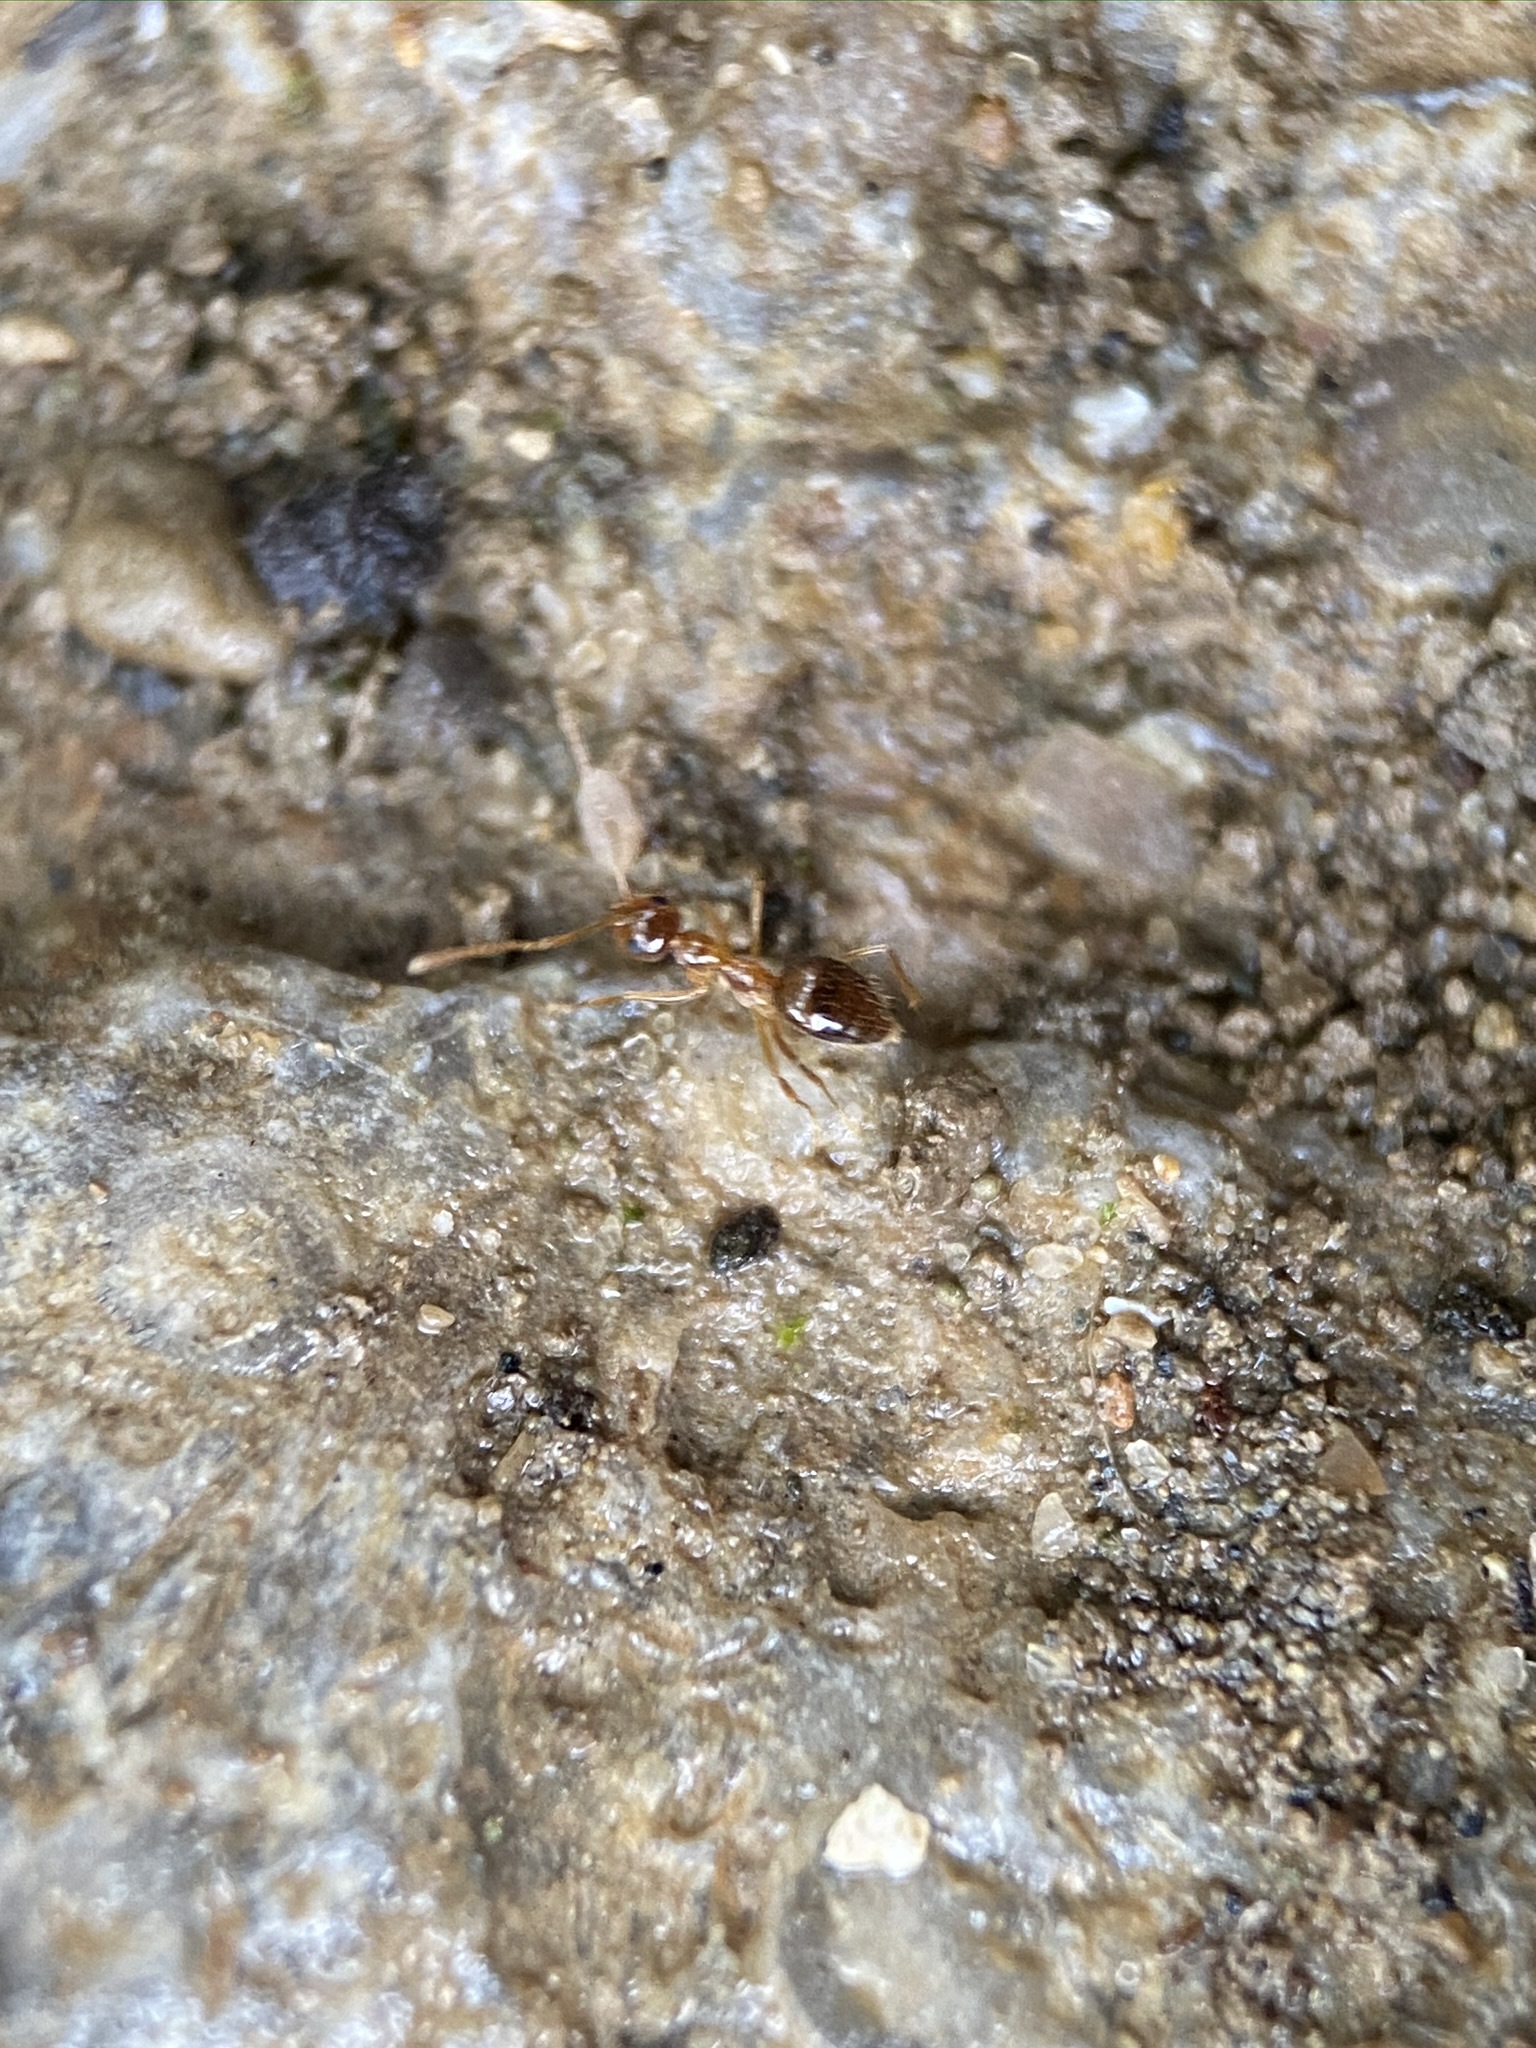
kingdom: Animalia
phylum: Arthropoda
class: Insecta
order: Hymenoptera
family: Formicidae
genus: Prenolepis
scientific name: Prenolepis imparis
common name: Small honey ant
